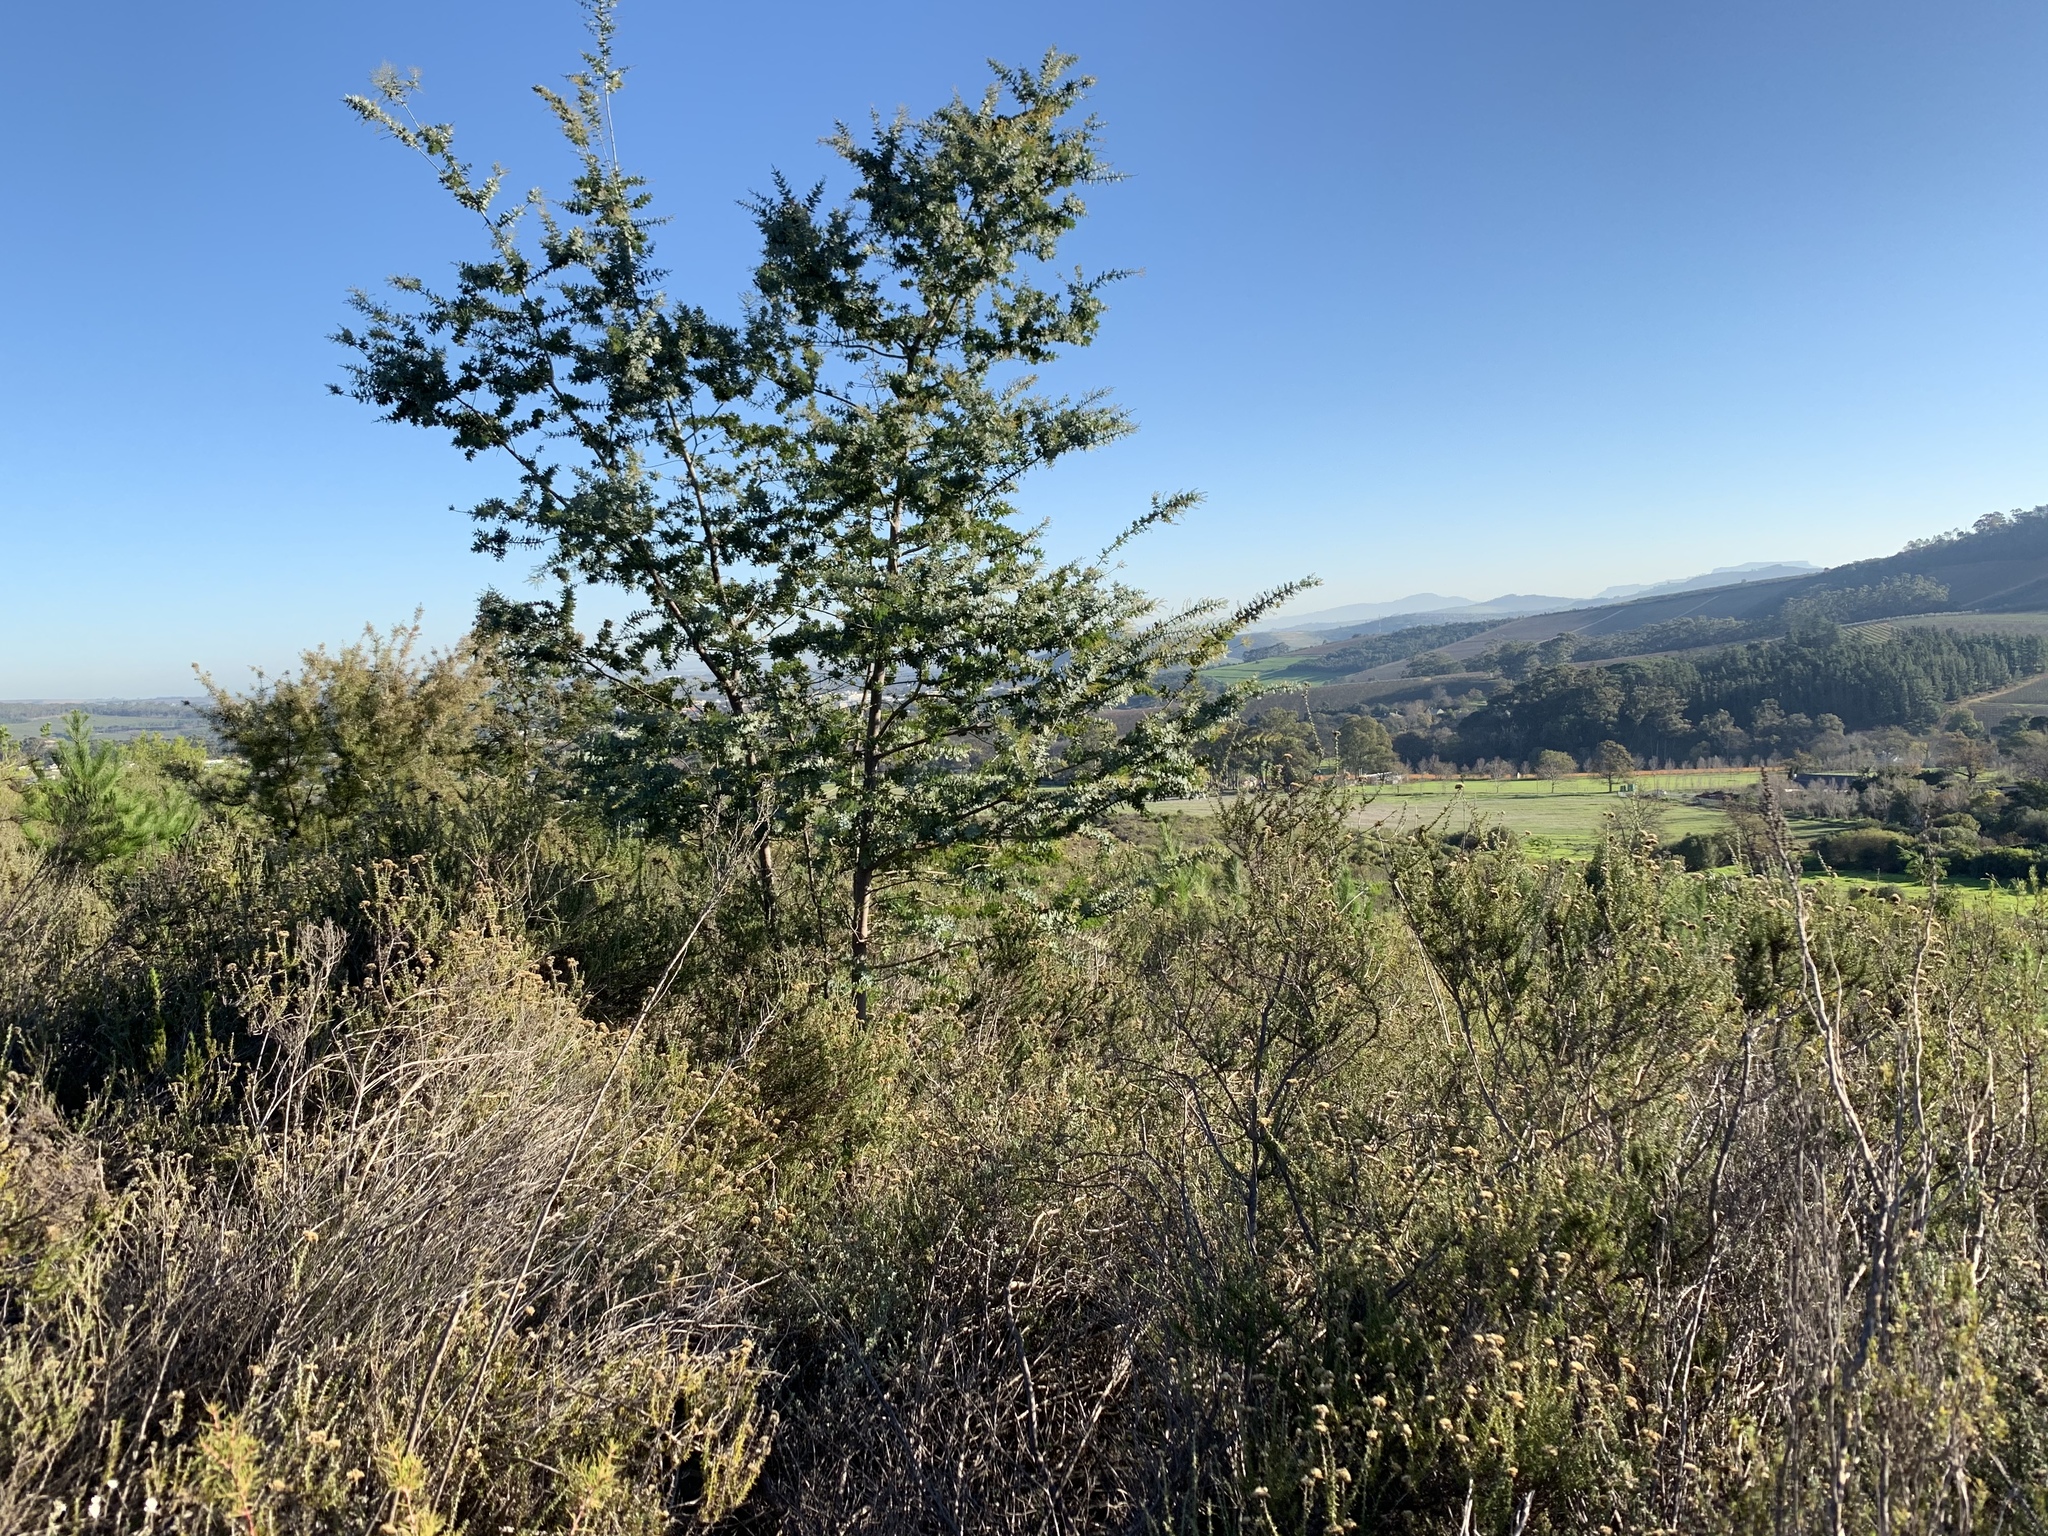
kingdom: Plantae
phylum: Tracheophyta
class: Magnoliopsida
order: Fabales
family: Fabaceae
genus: Acacia
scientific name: Acacia baileyana
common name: Cootamundra wattle
